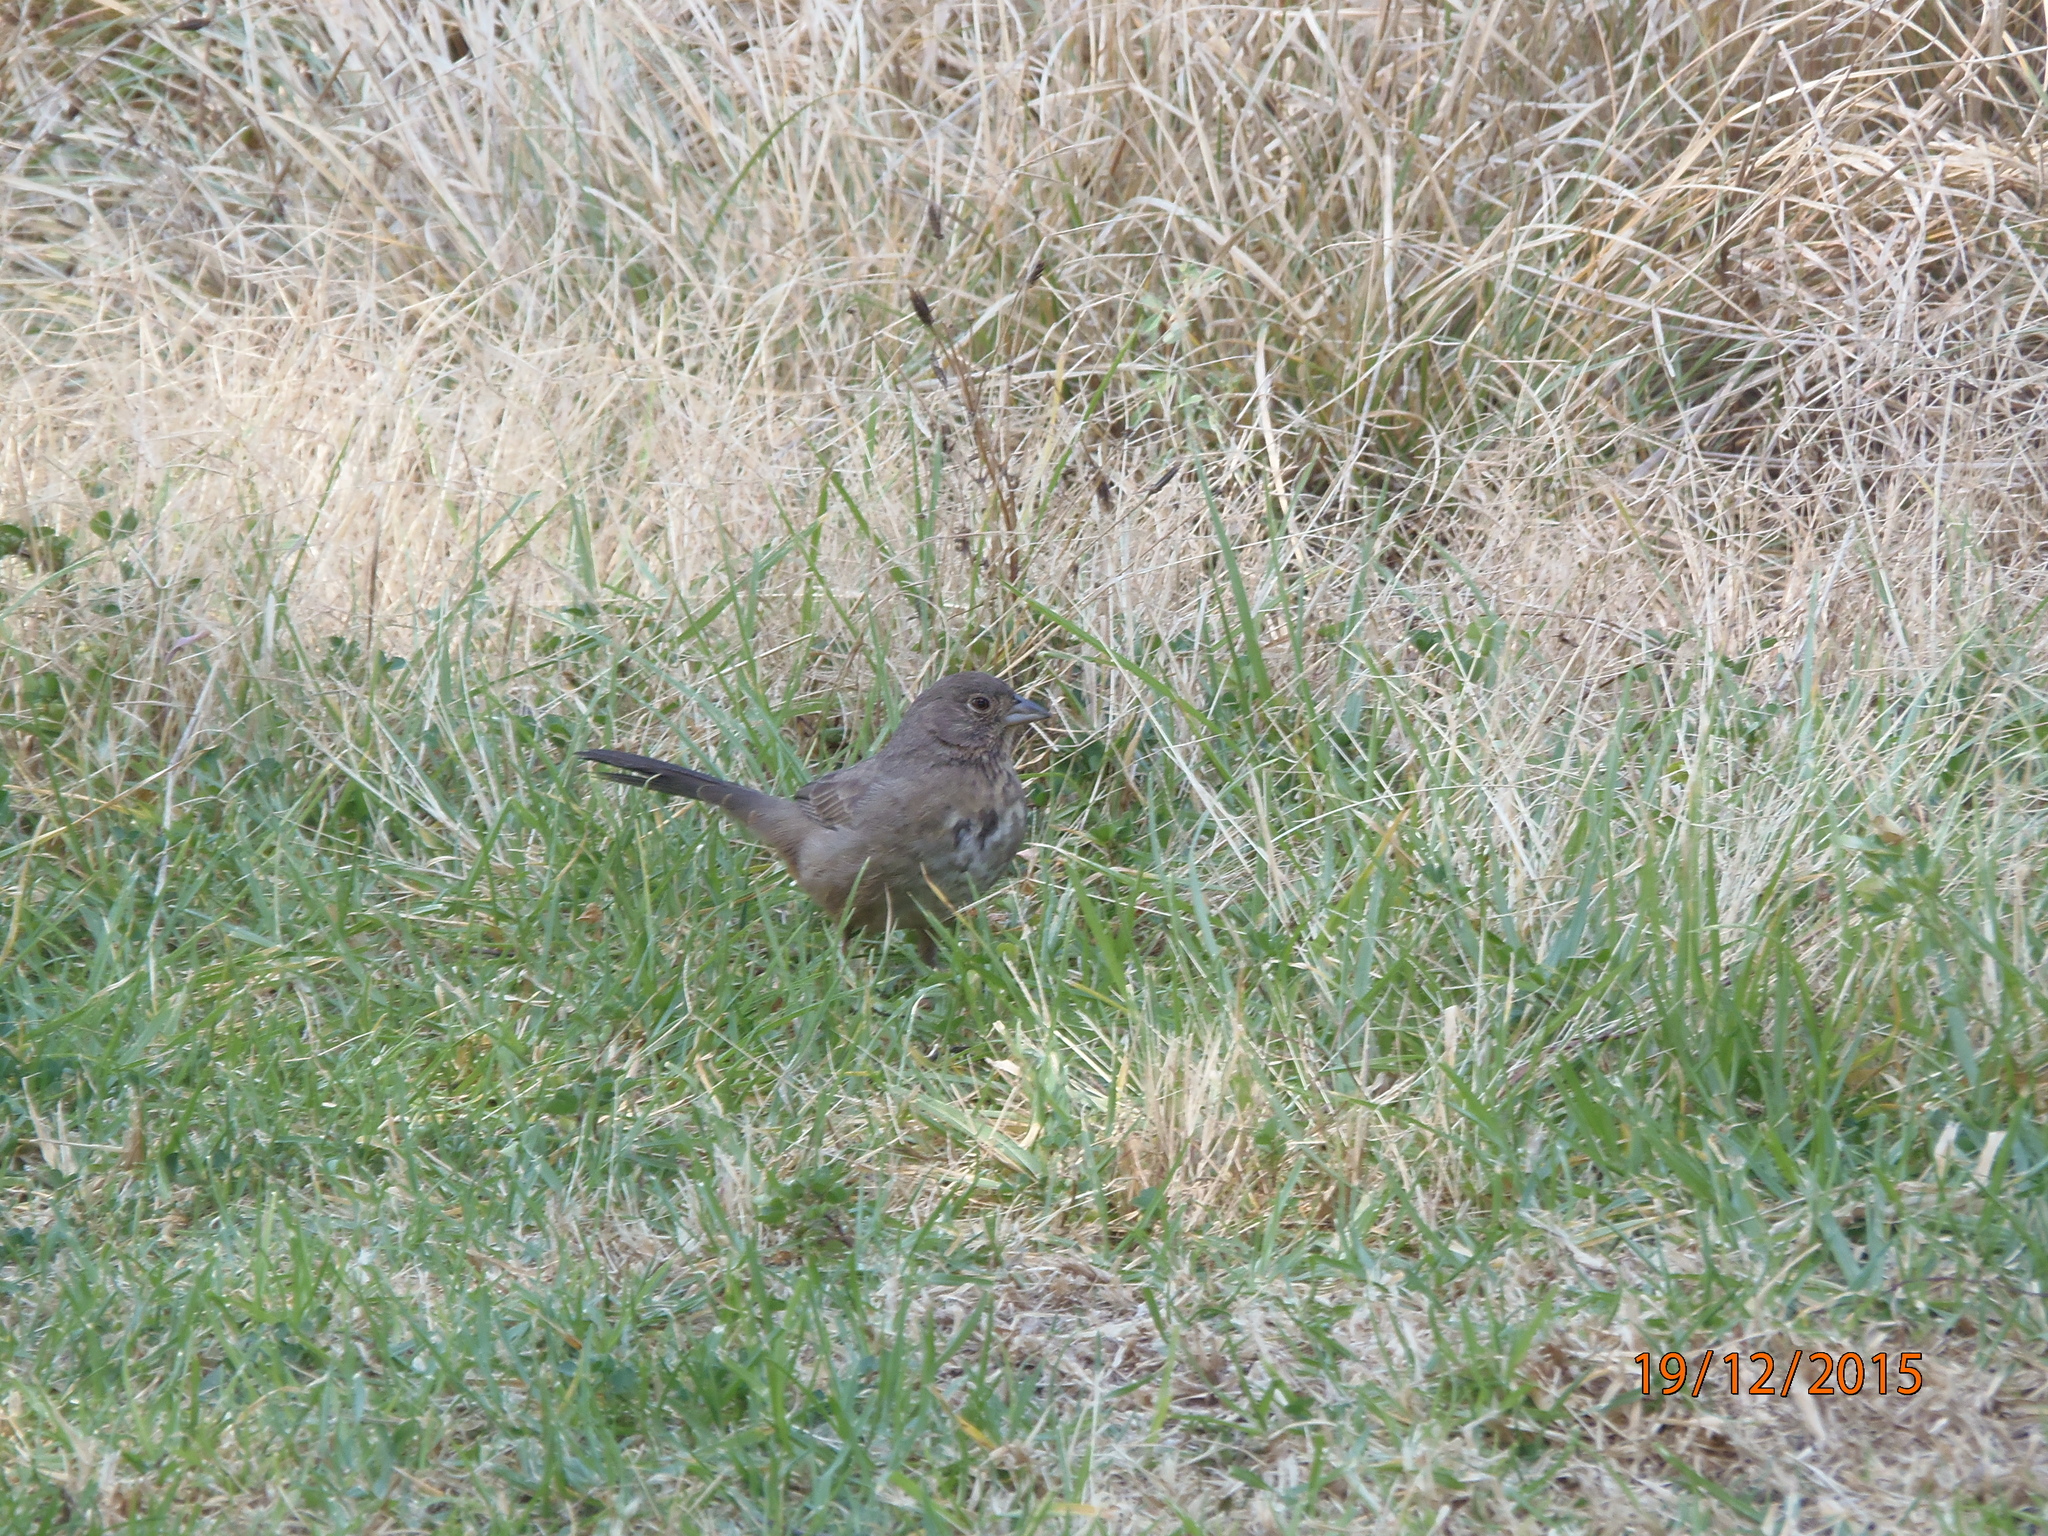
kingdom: Animalia
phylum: Chordata
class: Aves
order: Passeriformes
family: Passerellidae
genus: Melozone
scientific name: Melozone fusca
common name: Canyon towhee
